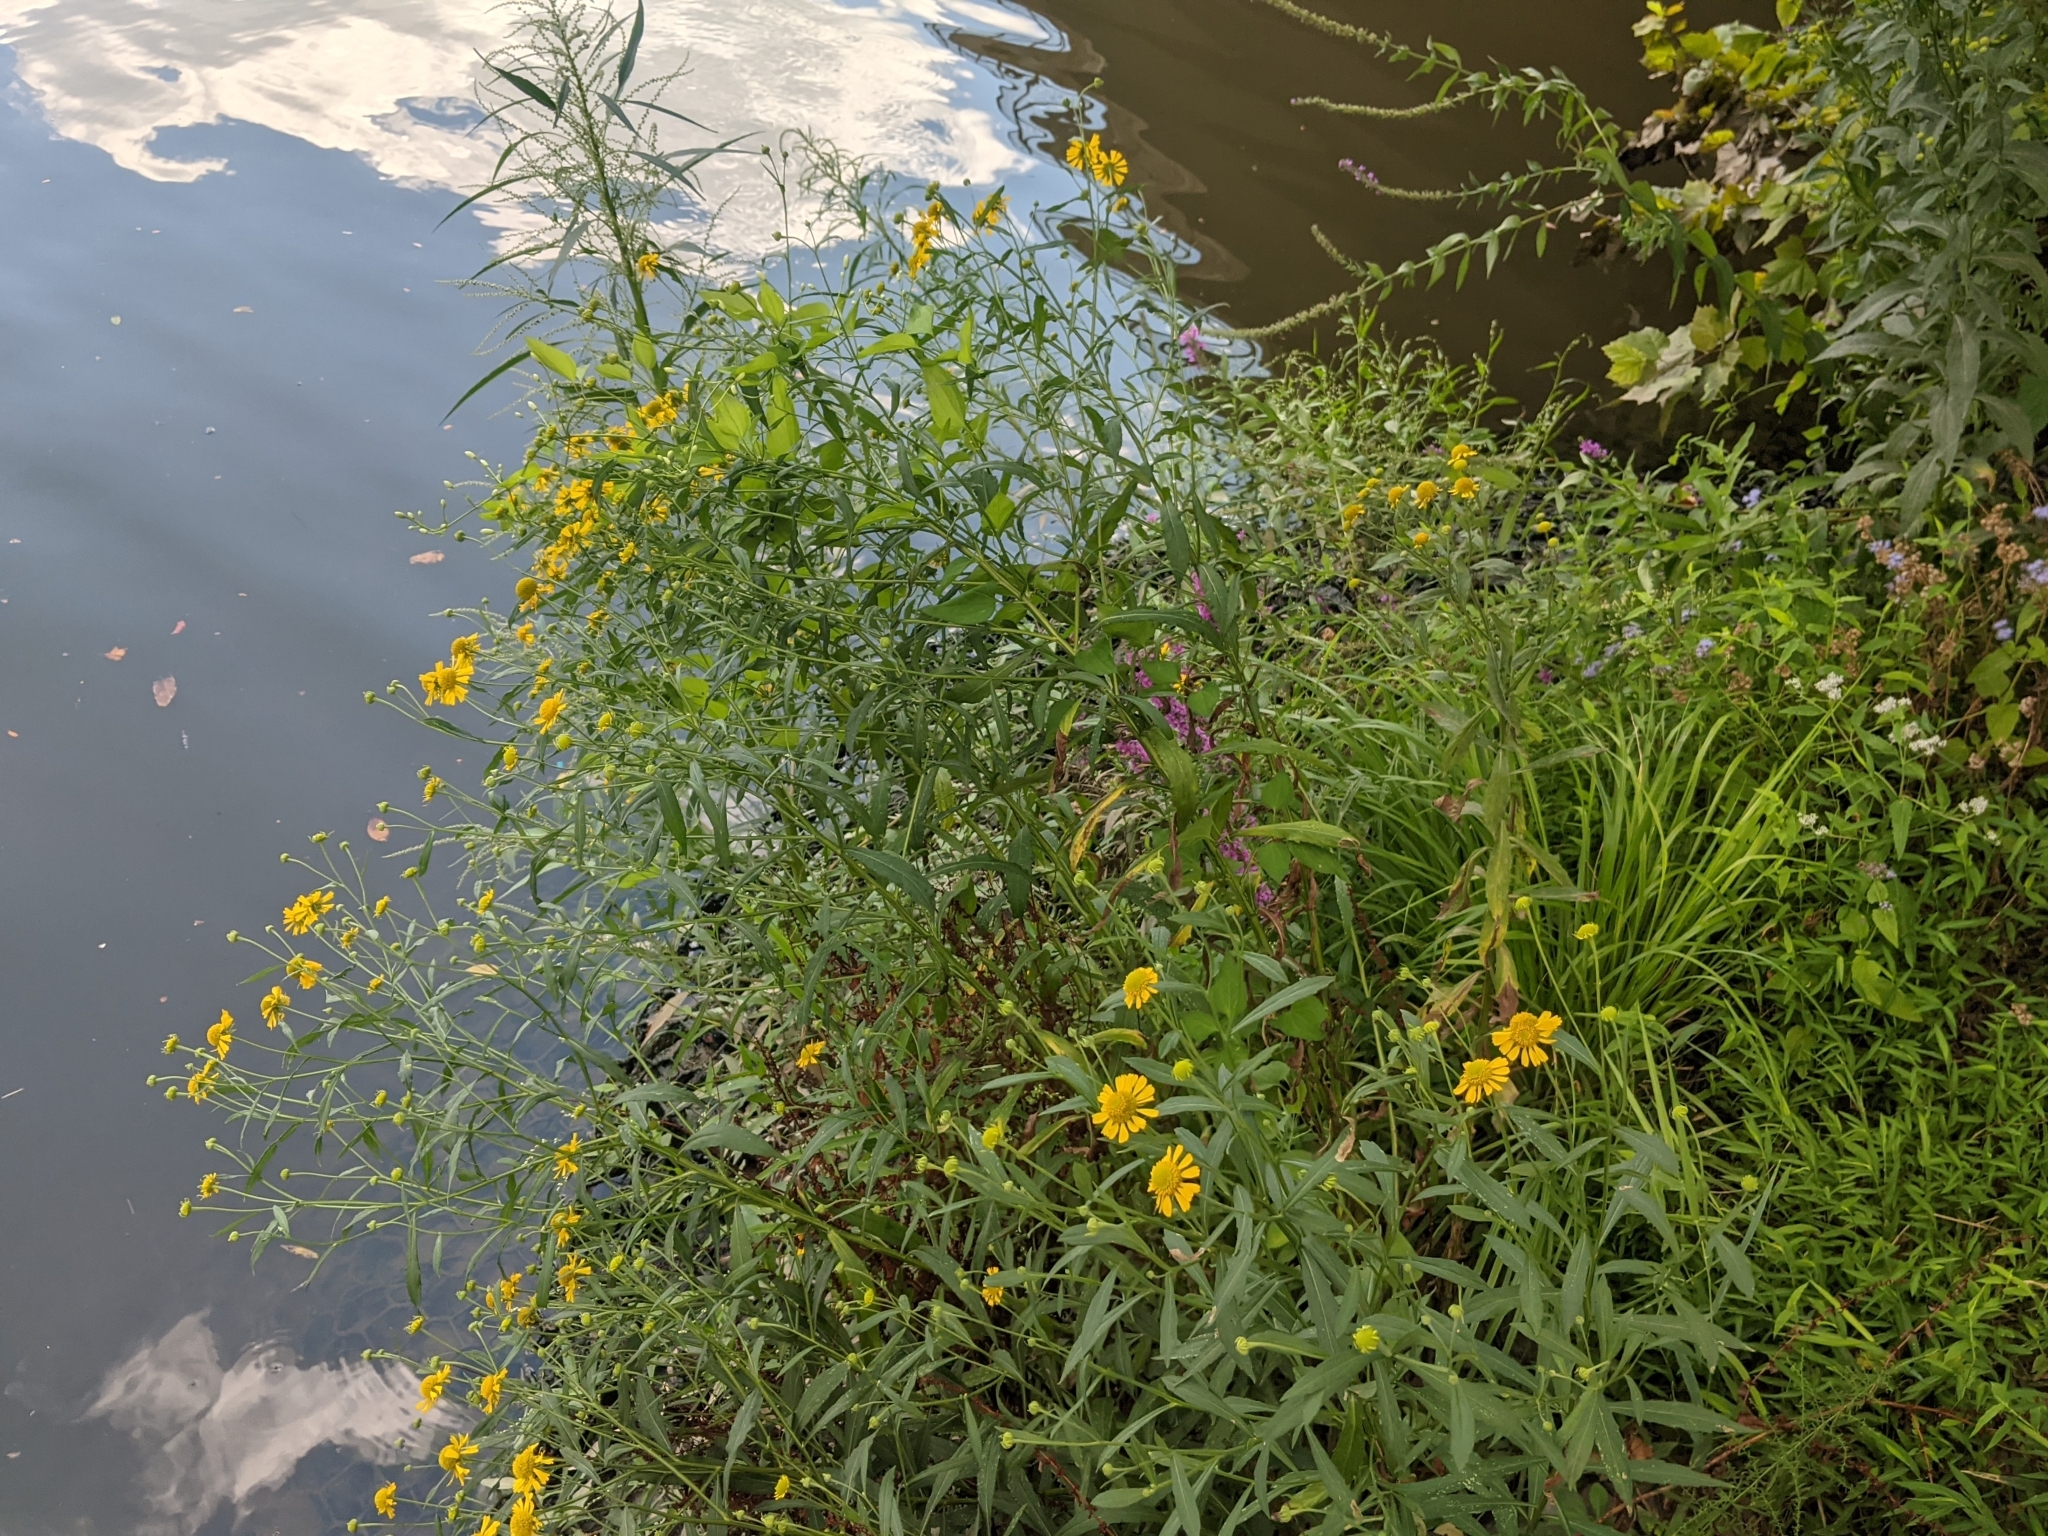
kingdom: Plantae
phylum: Tracheophyta
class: Magnoliopsida
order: Asterales
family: Asteraceae
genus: Helenium
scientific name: Helenium autumnale
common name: Sneezeweed
